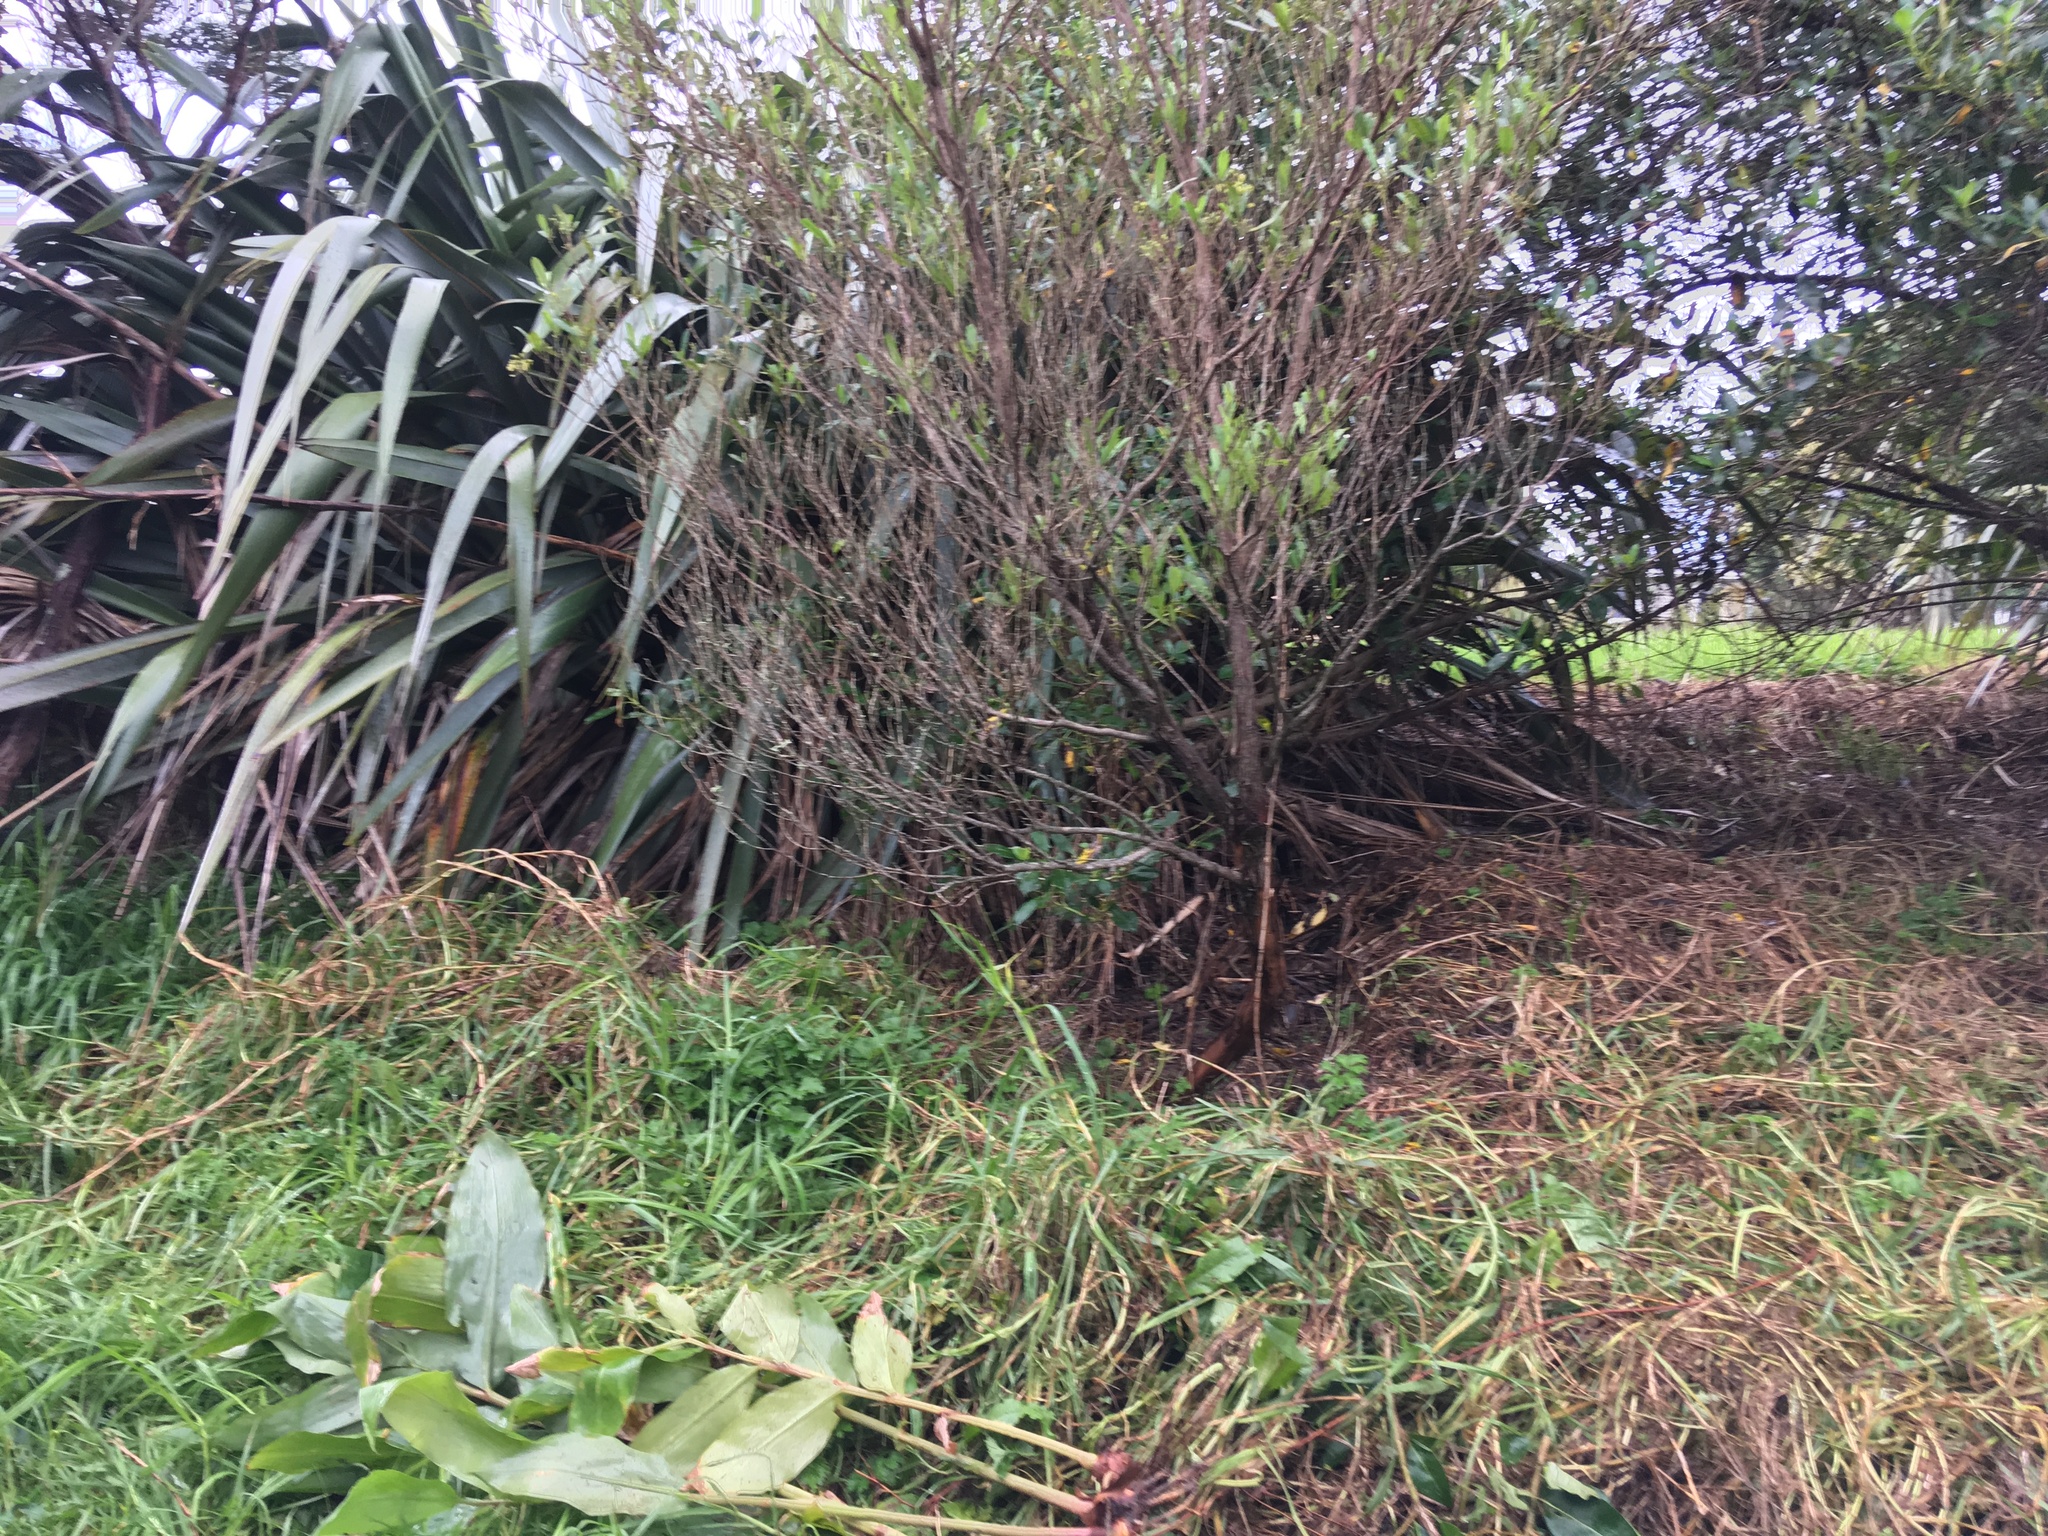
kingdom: Plantae
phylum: Tracheophyta
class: Liliopsida
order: Poales
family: Poaceae
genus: Cenchrus
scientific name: Cenchrus clandestinus
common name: Kikuyugrass
